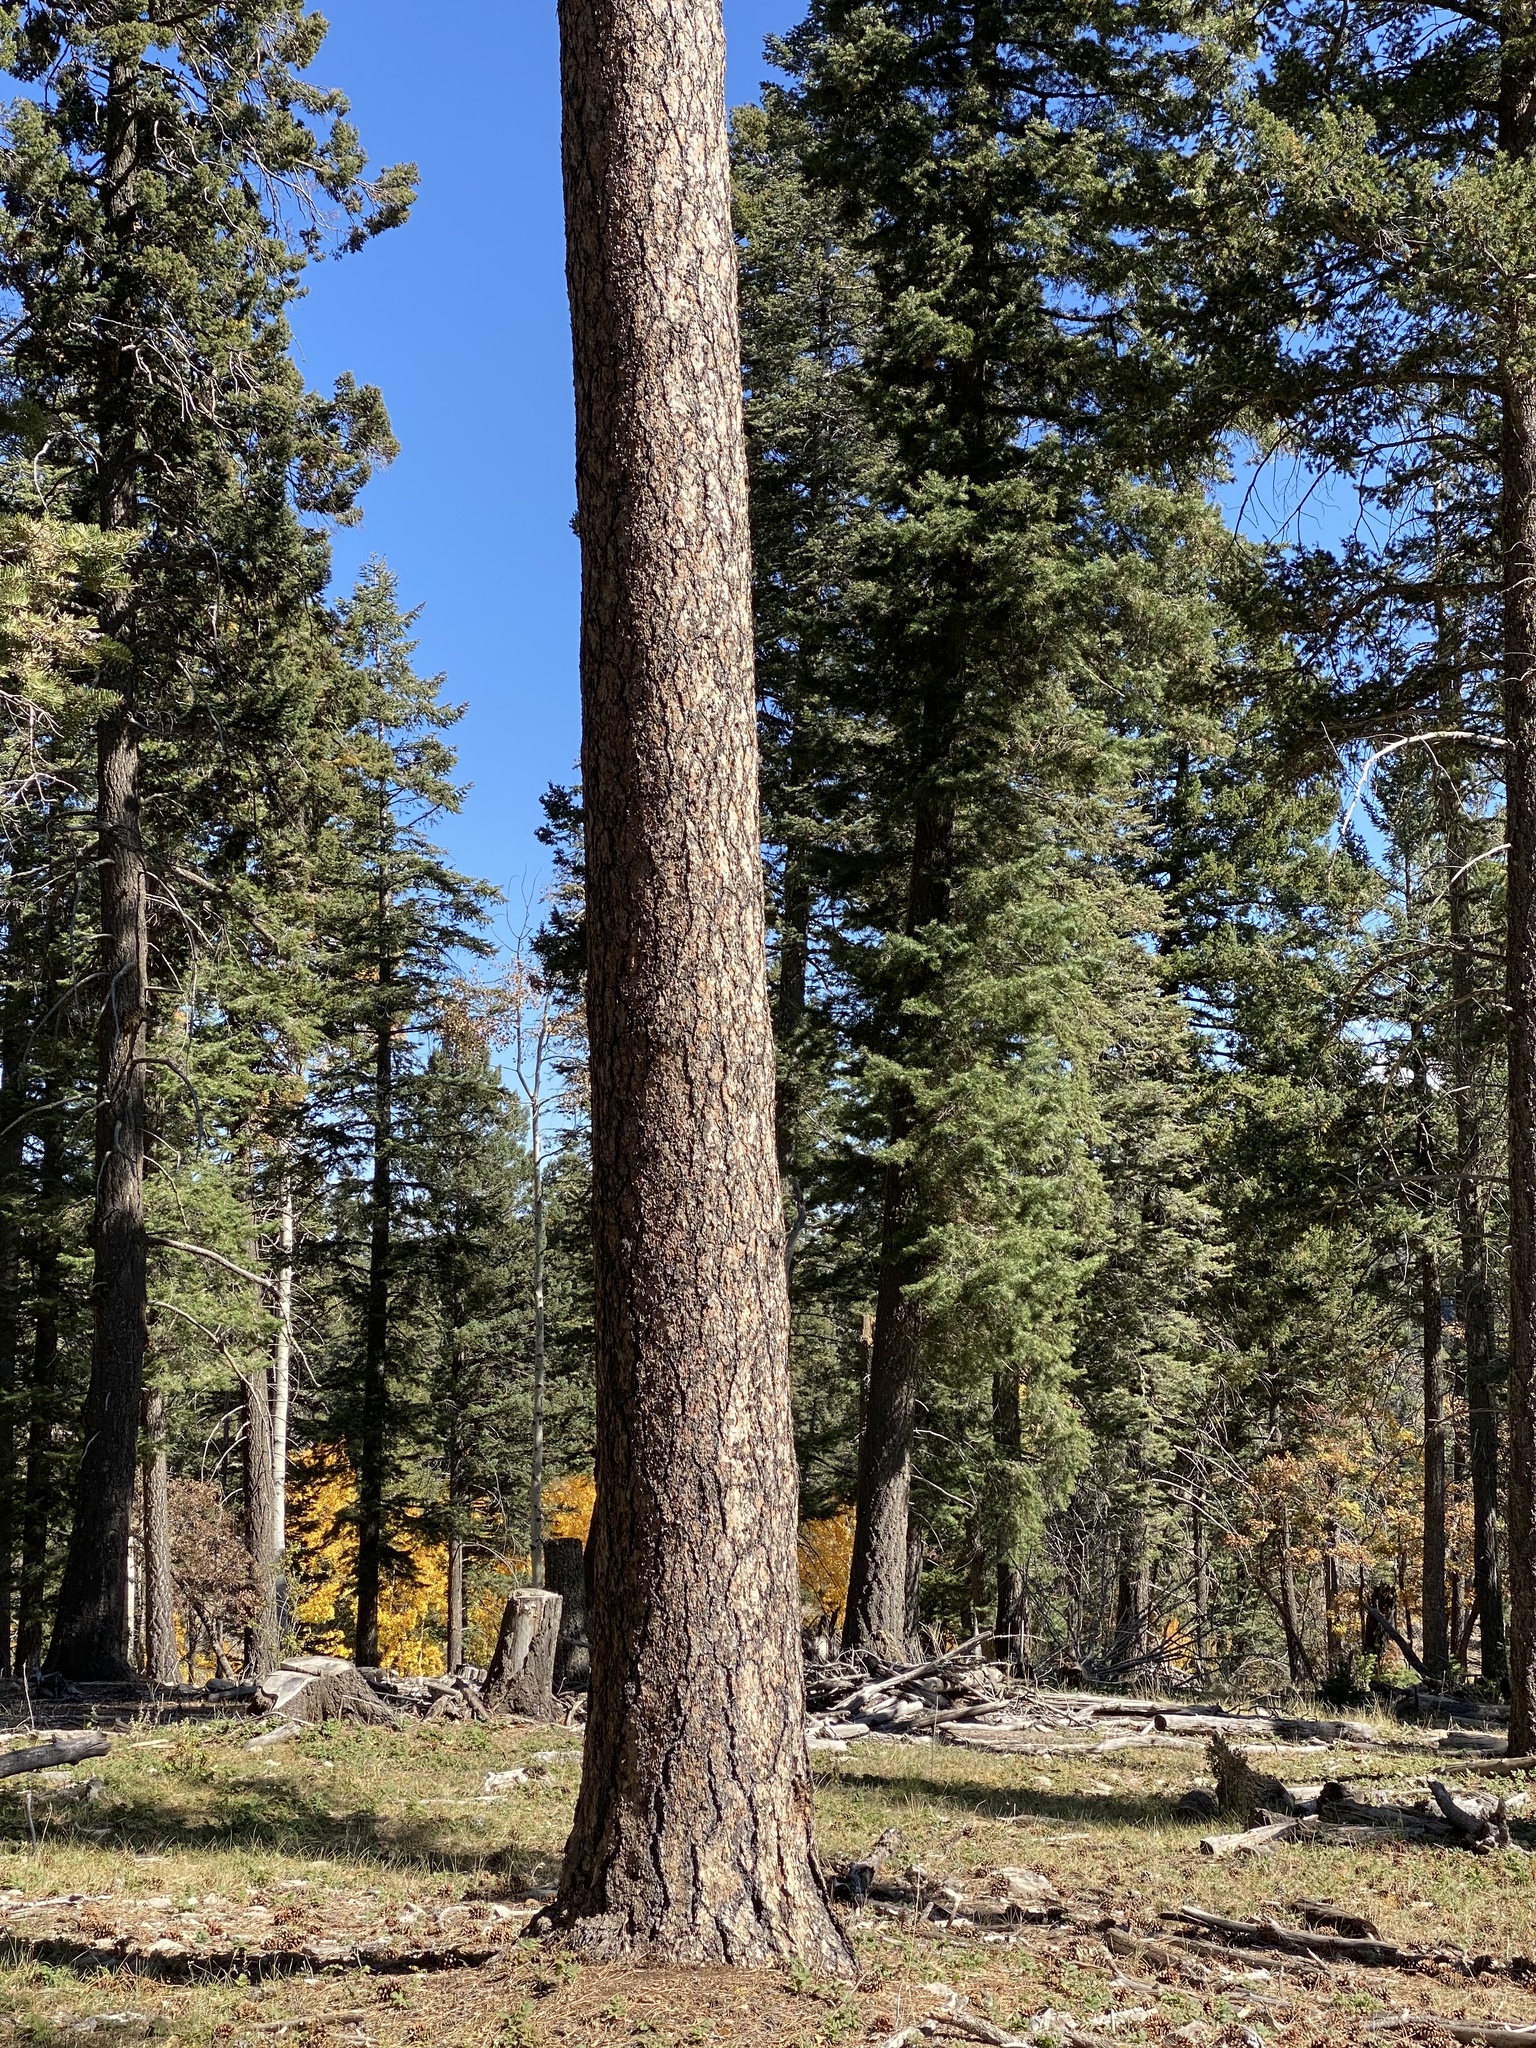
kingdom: Plantae
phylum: Tracheophyta
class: Pinopsida
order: Pinales
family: Pinaceae
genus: Pinus
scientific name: Pinus ponderosa
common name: Western yellow-pine
